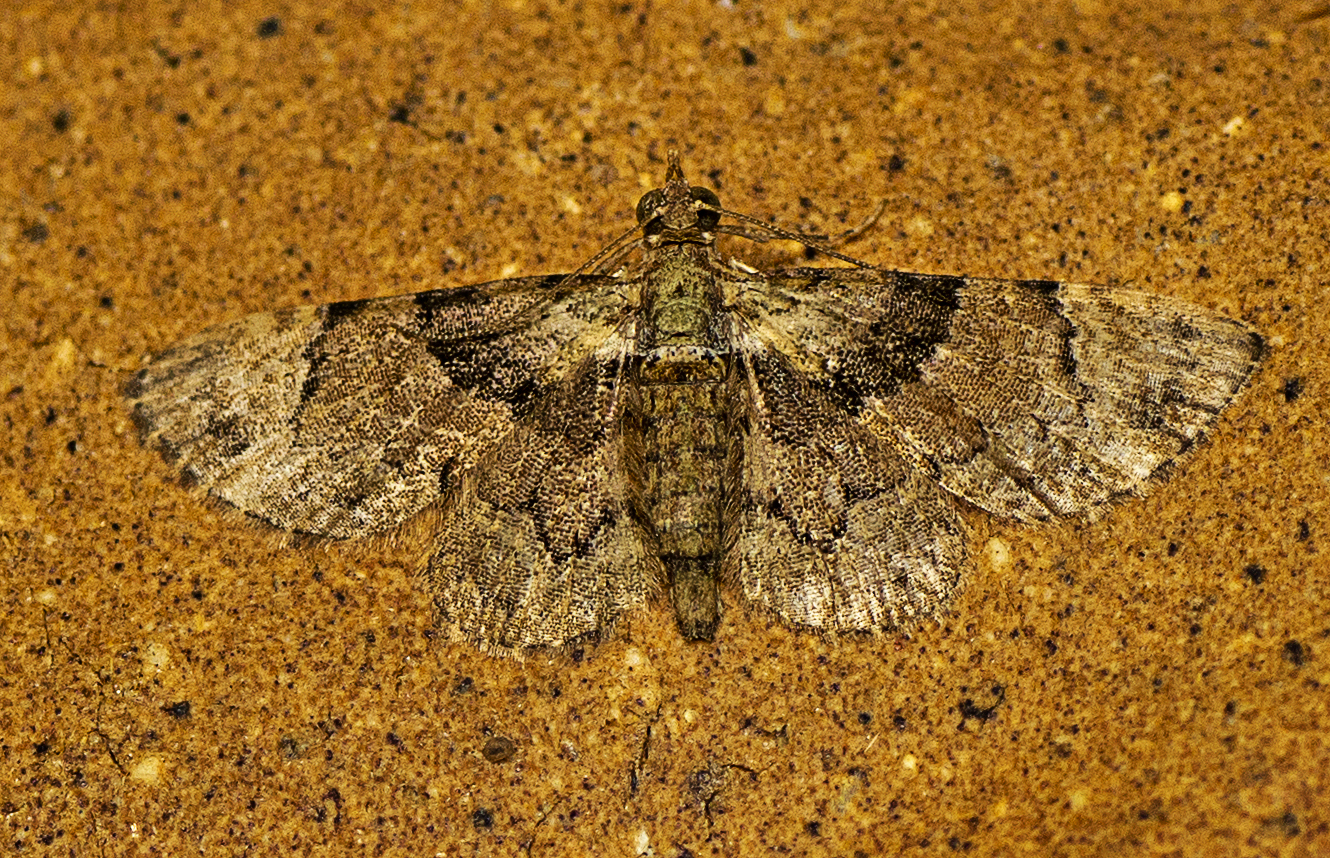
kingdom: Animalia
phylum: Arthropoda
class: Insecta
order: Lepidoptera
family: Geometridae
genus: Gymnoscelis
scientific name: Gymnoscelis derogata
